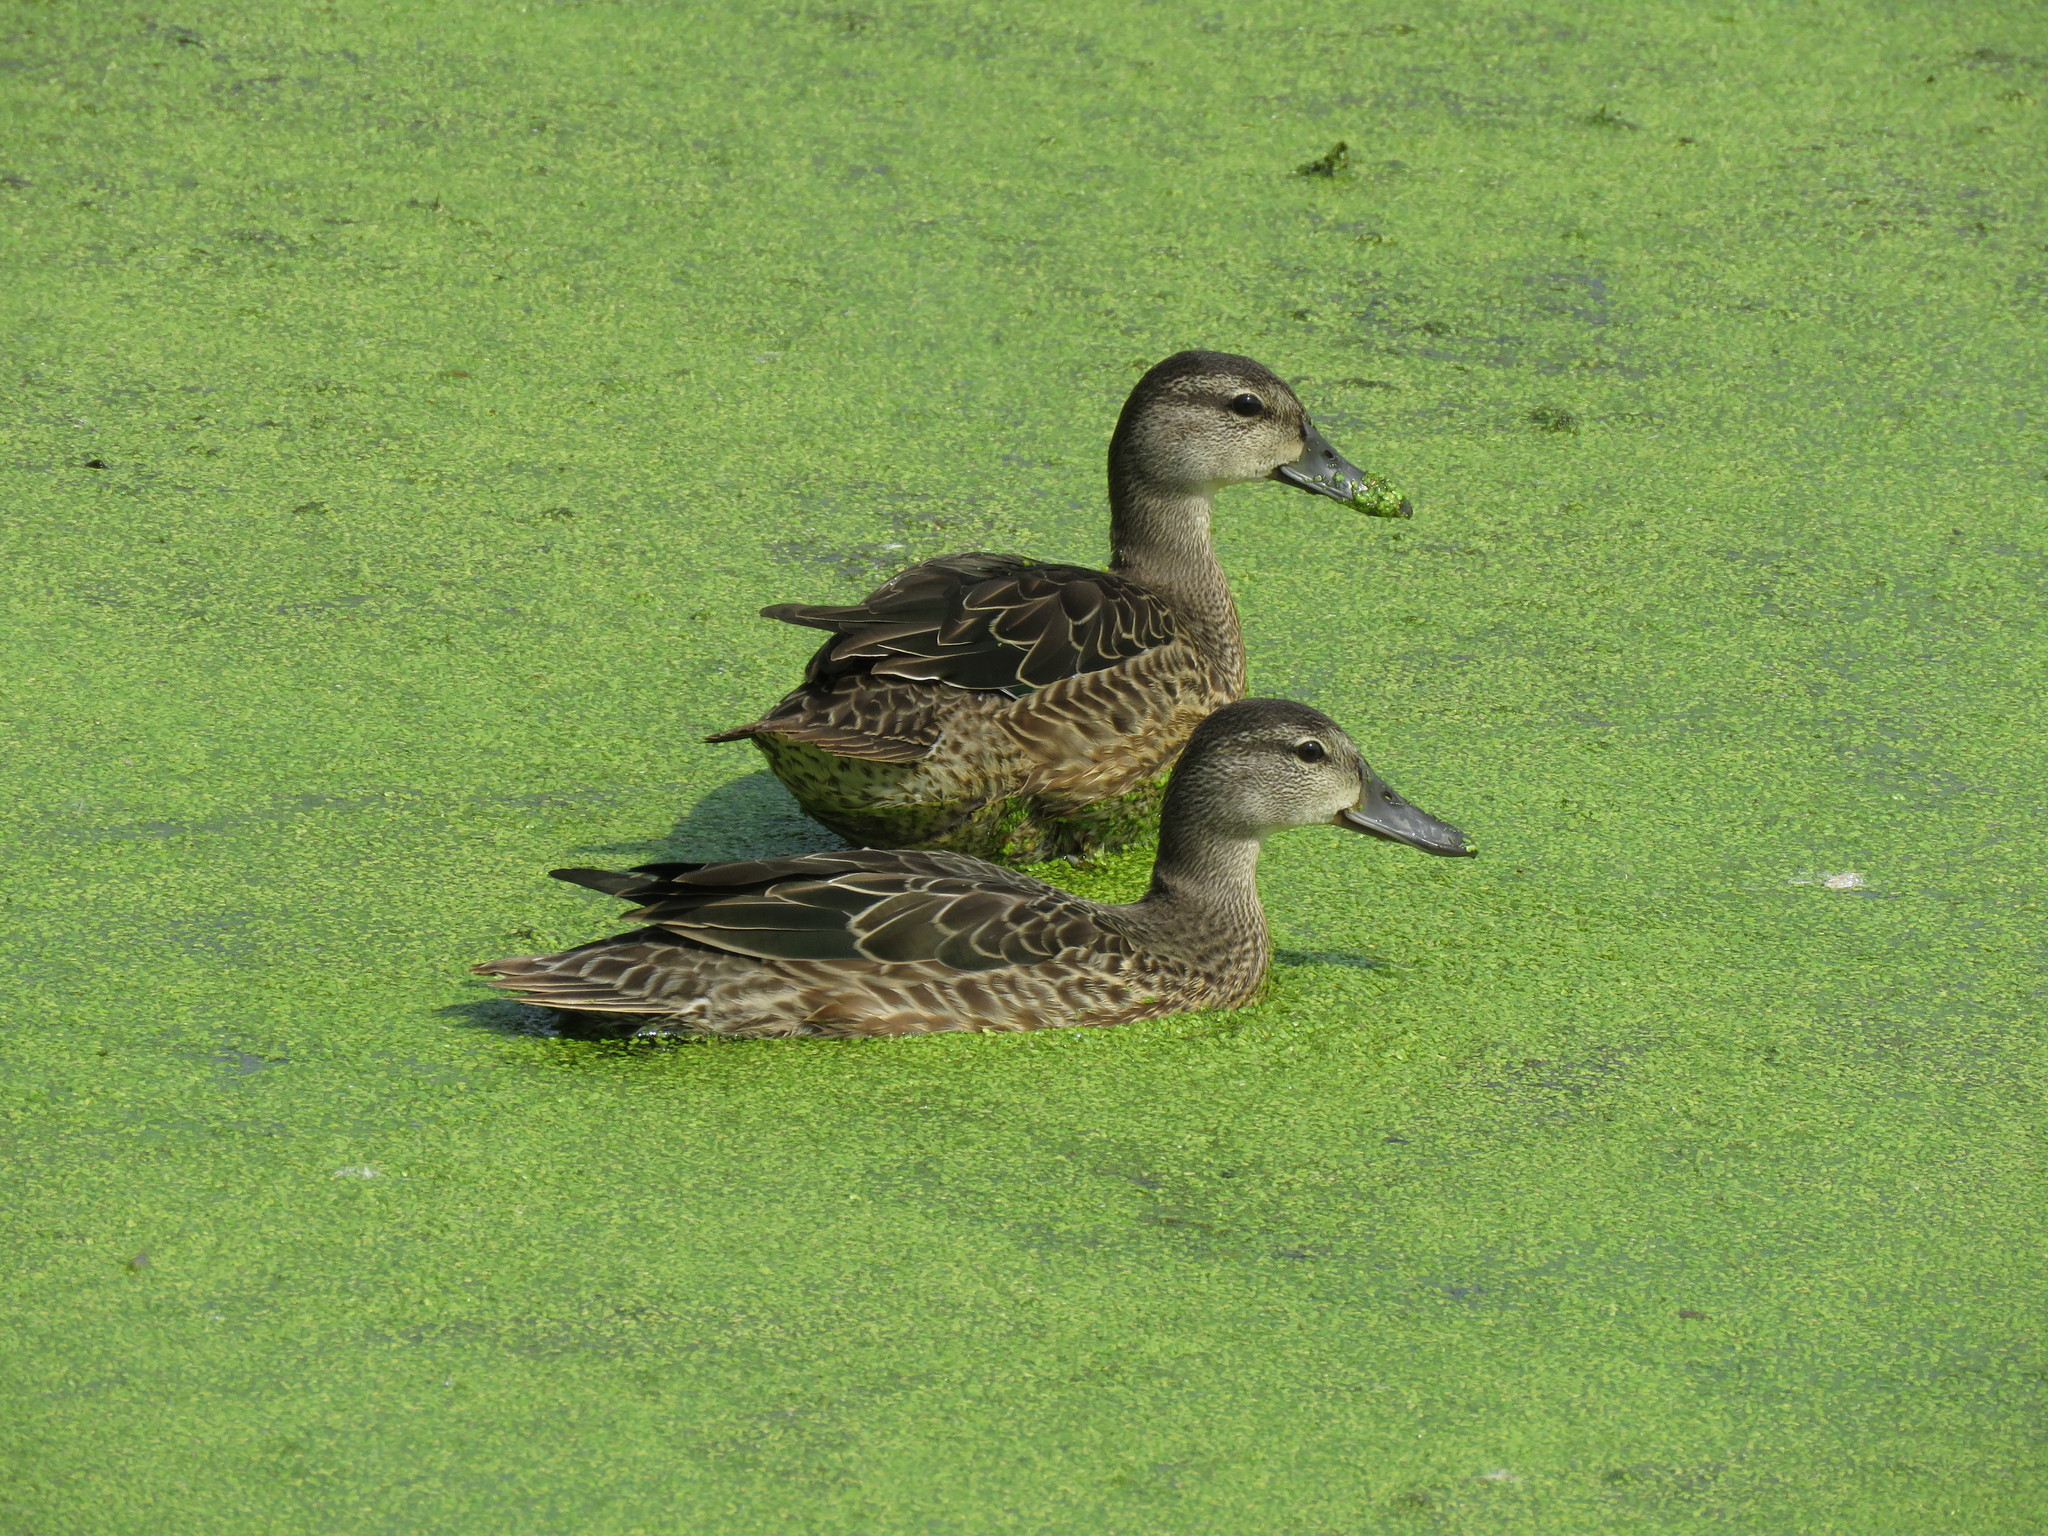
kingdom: Animalia
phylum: Chordata
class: Aves
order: Anseriformes
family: Anatidae
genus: Spatula
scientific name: Spatula discors
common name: Blue-winged teal
